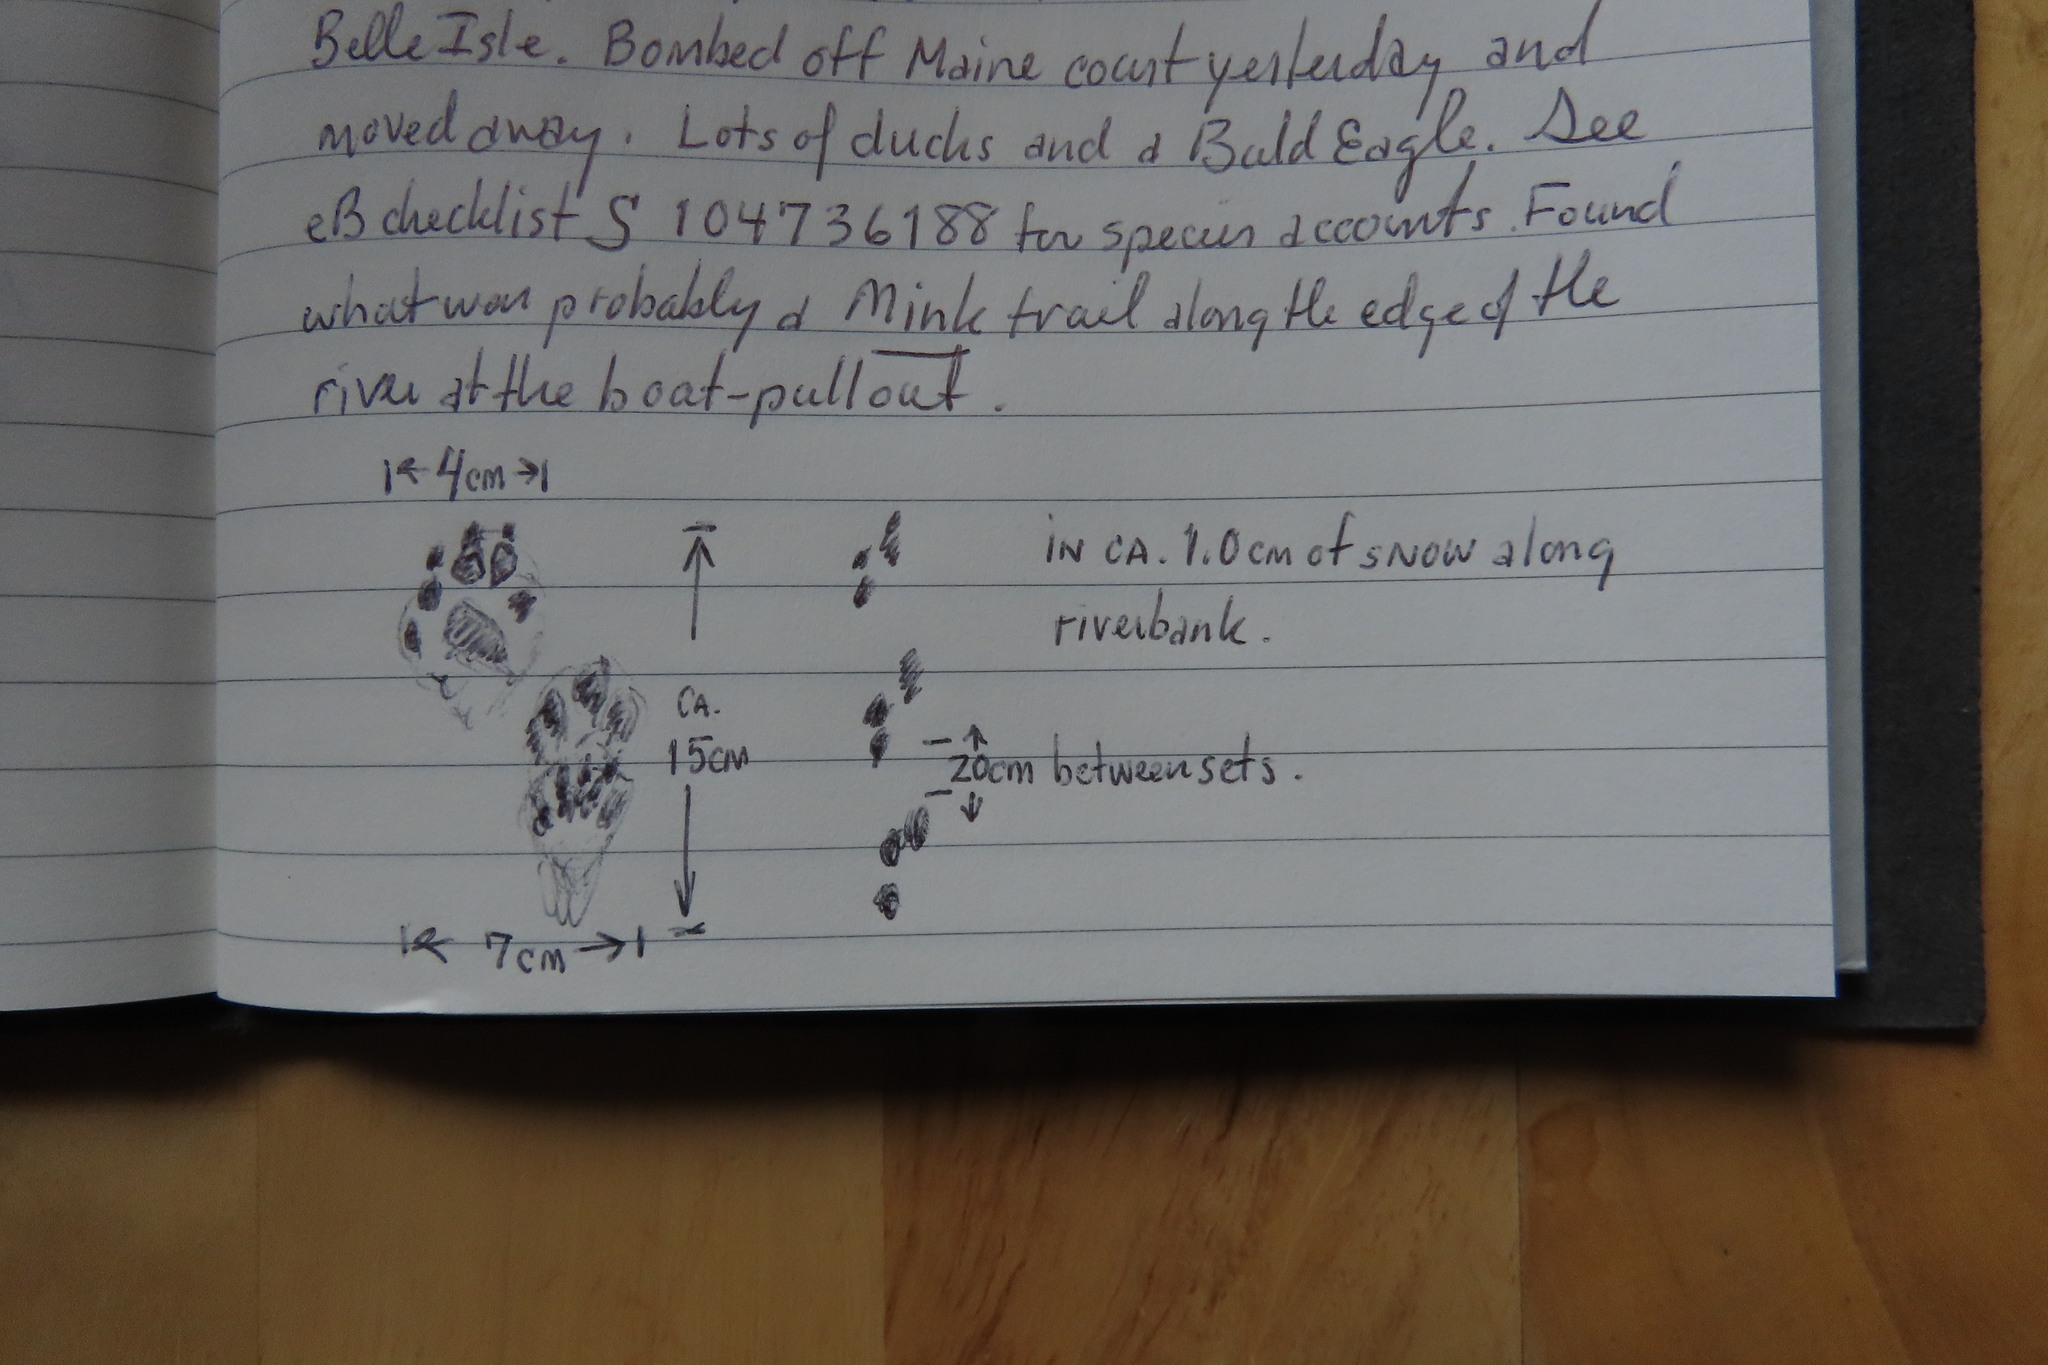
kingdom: Animalia
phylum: Chordata
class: Mammalia
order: Carnivora
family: Mustelidae
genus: Mustela
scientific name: Mustela
